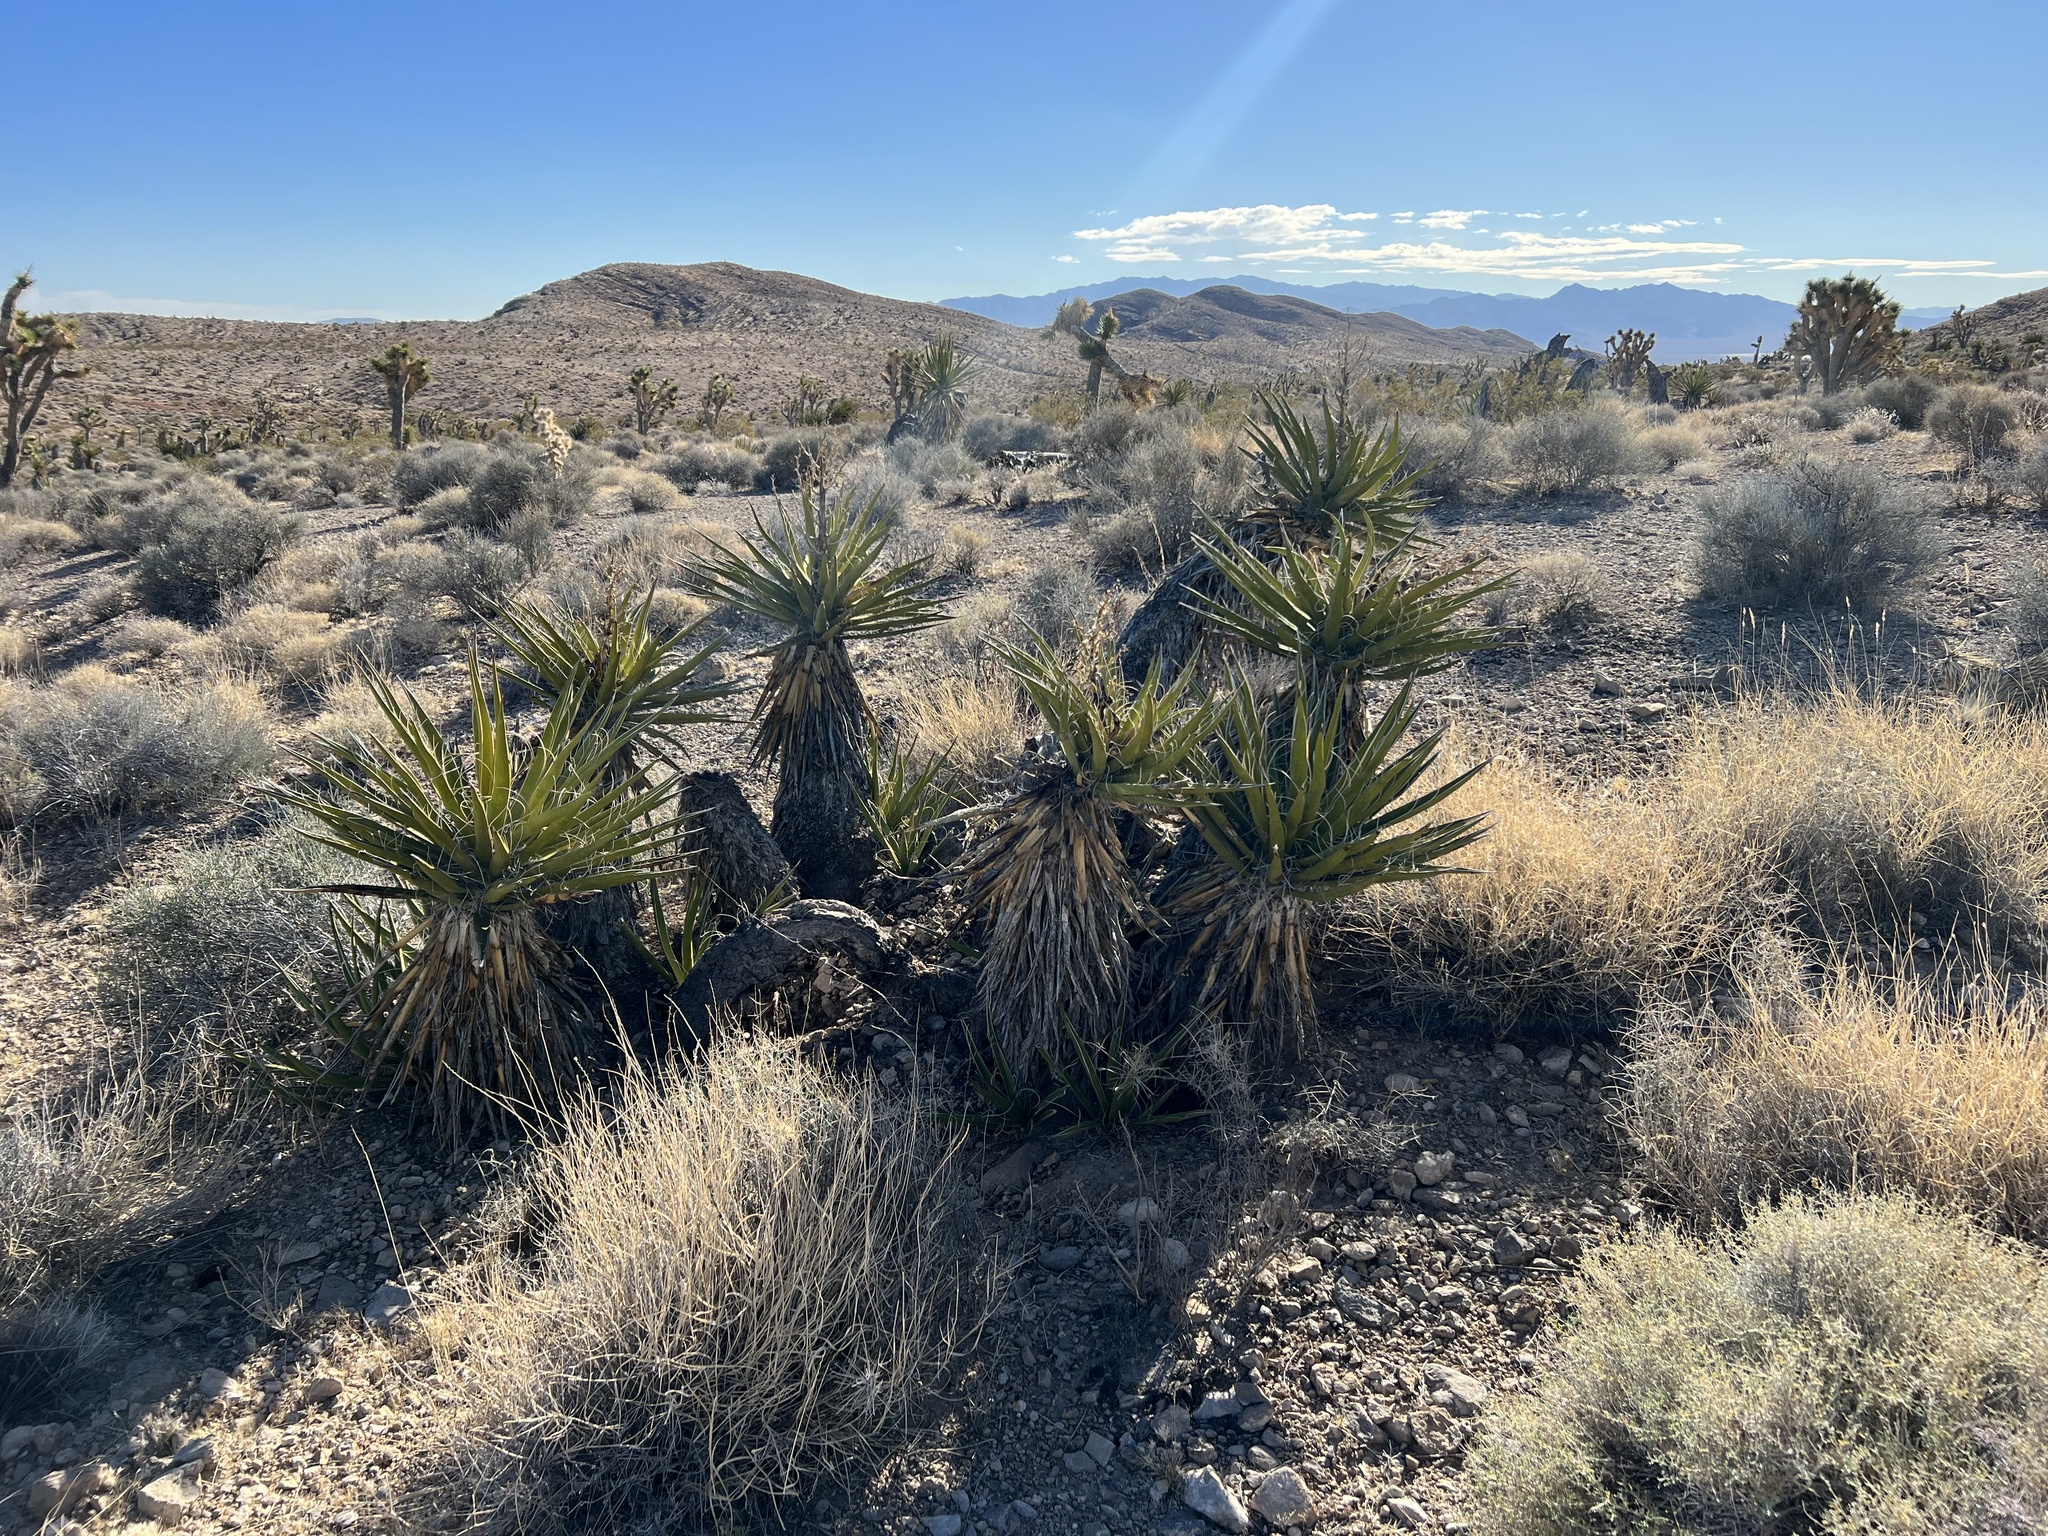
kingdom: Plantae
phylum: Tracheophyta
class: Liliopsida
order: Asparagales
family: Asparagaceae
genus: Yucca
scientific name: Yucca schidigera
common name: Mojave yucca
